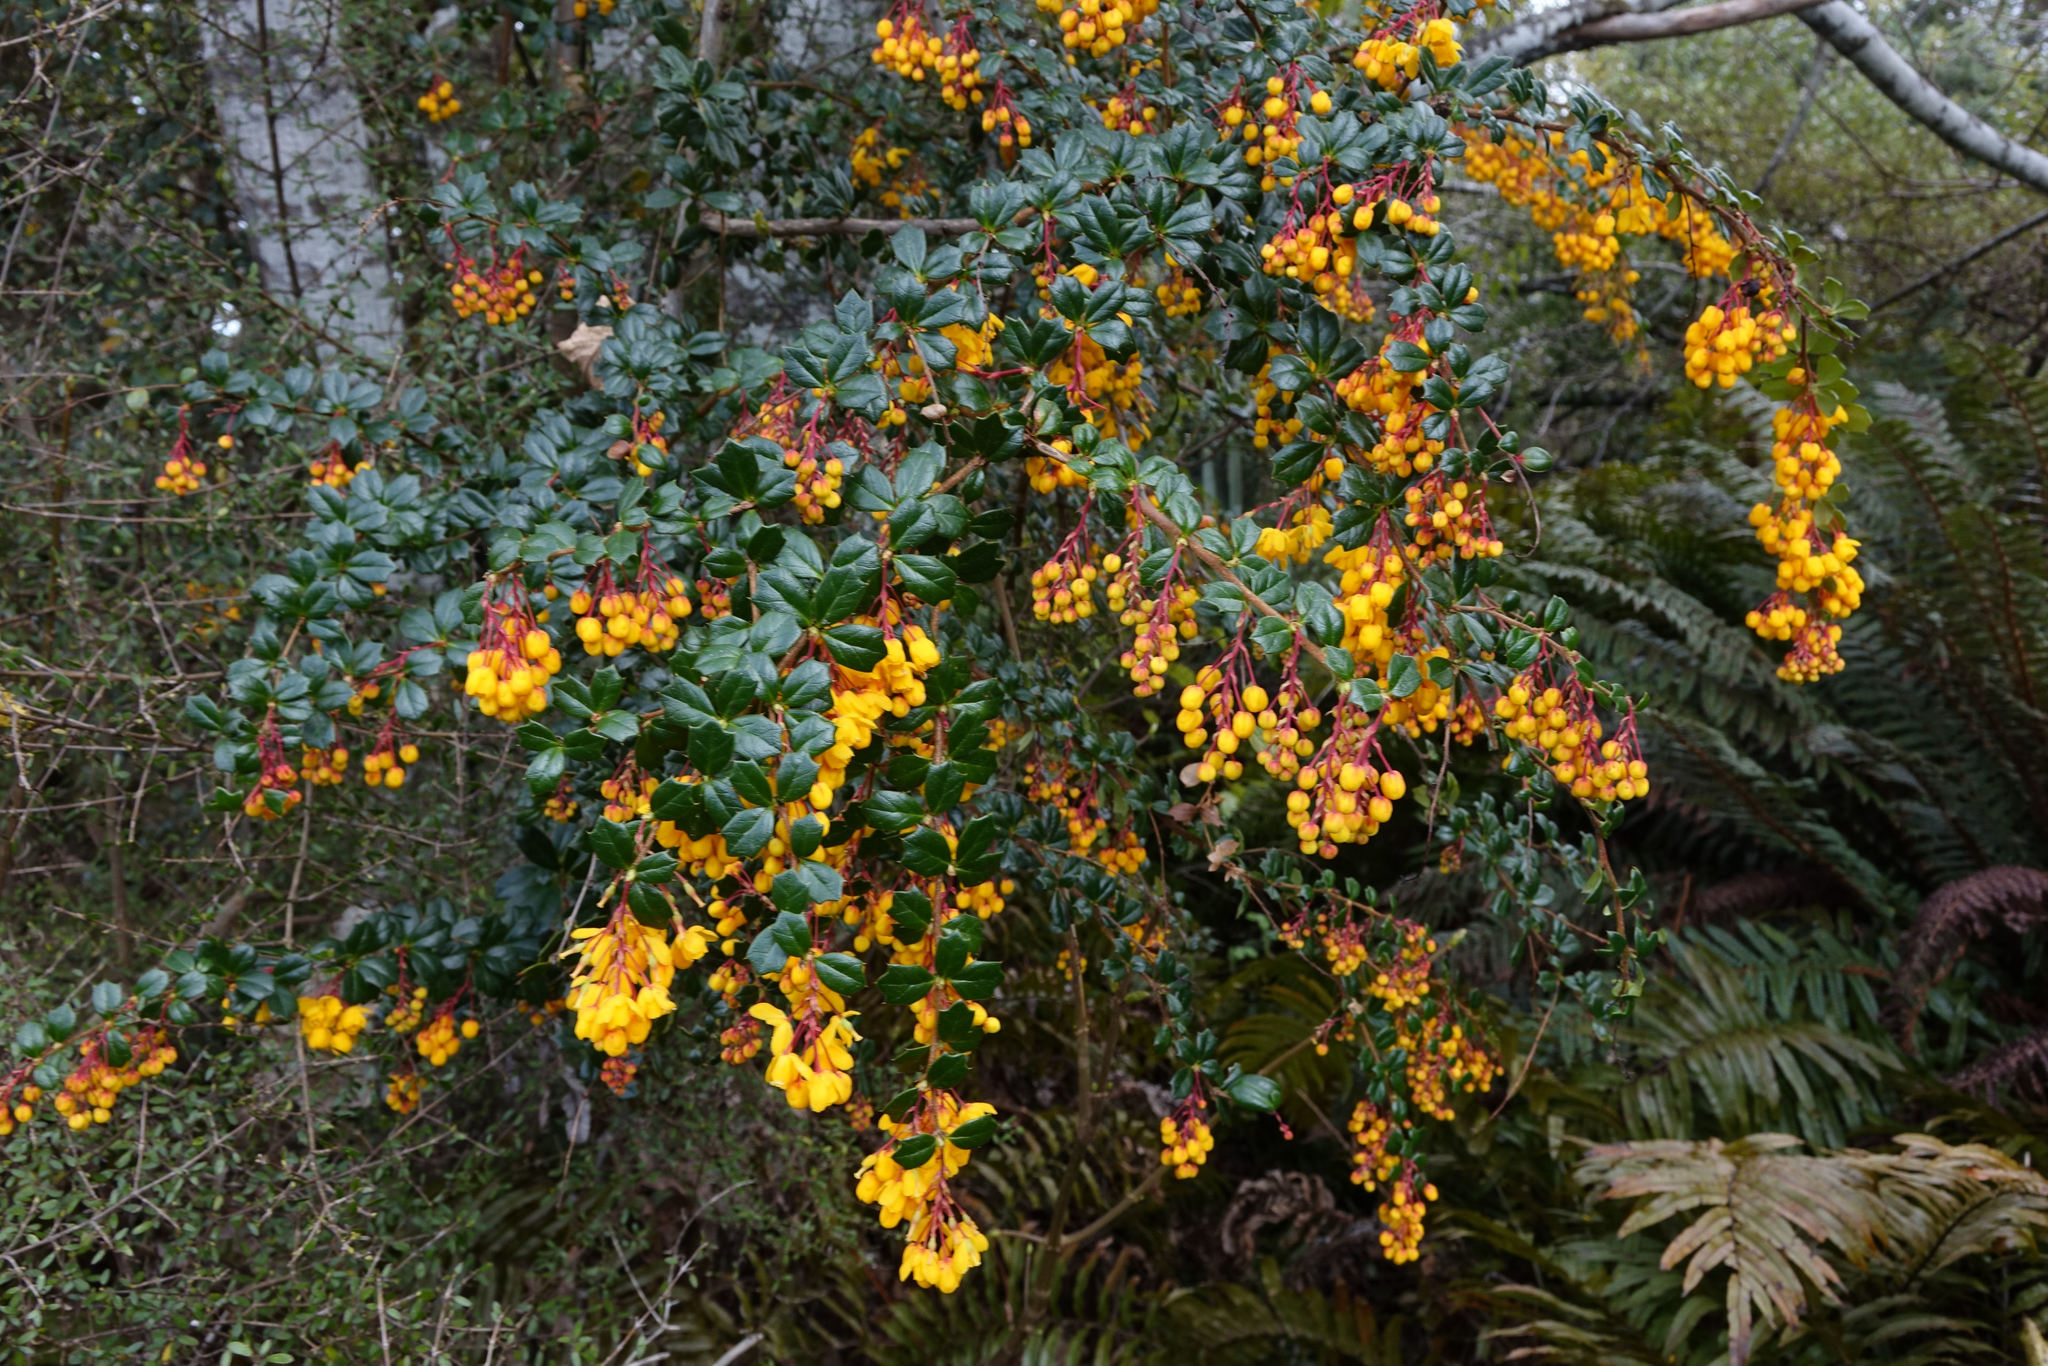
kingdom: Plantae
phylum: Tracheophyta
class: Magnoliopsida
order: Ranunculales
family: Berberidaceae
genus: Berberis
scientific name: Berberis darwinii
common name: Darwin's barberry
